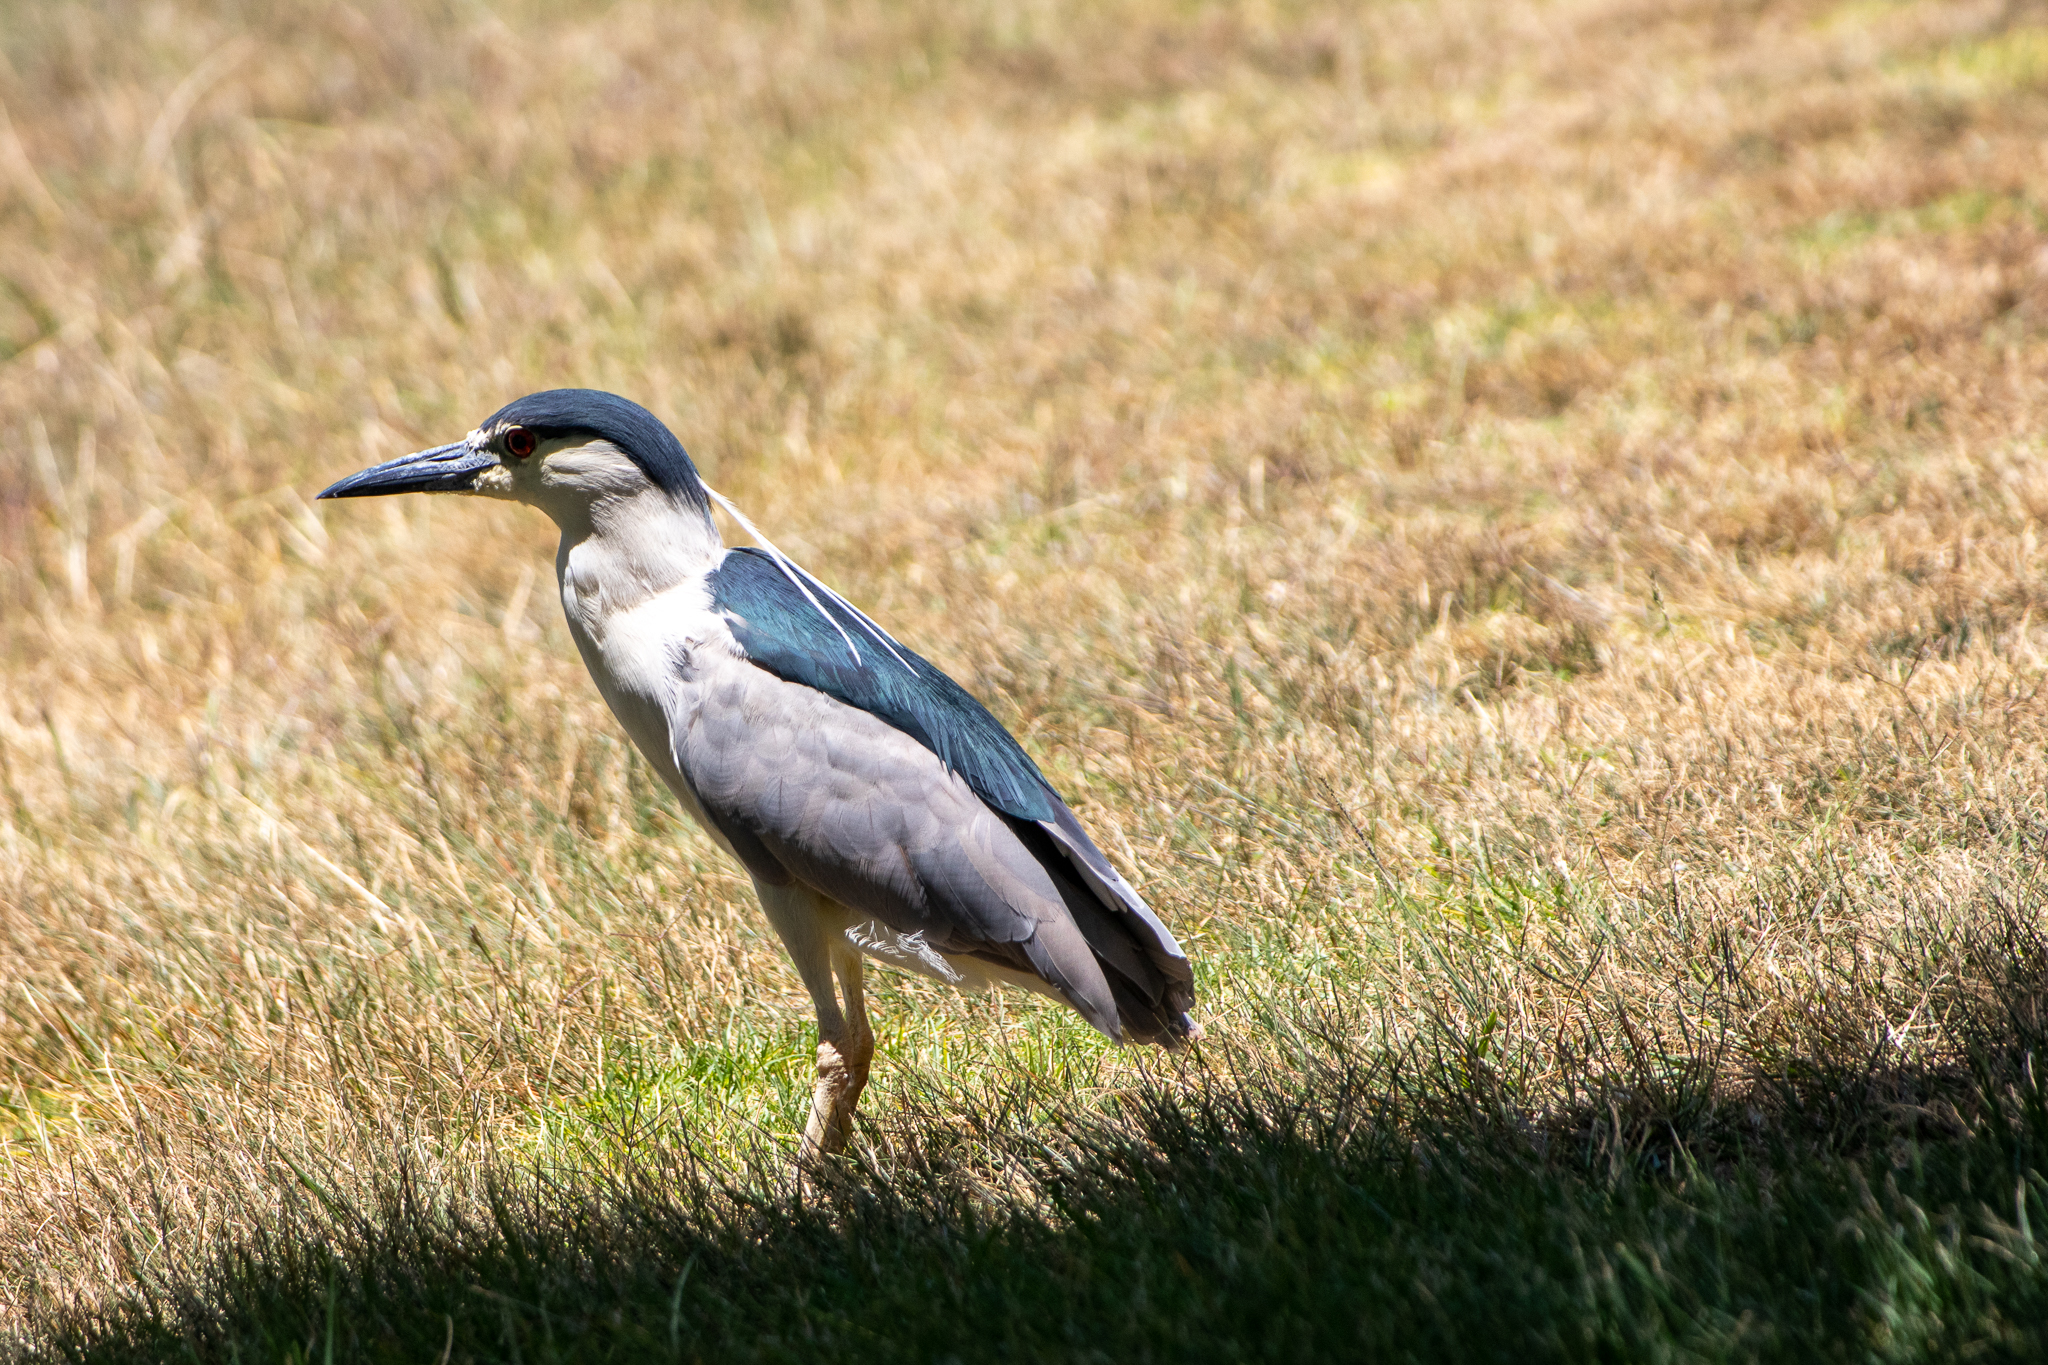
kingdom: Animalia
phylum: Chordata
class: Aves
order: Pelecaniformes
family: Ardeidae
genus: Nycticorax
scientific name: Nycticorax nycticorax
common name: Black-crowned night heron
